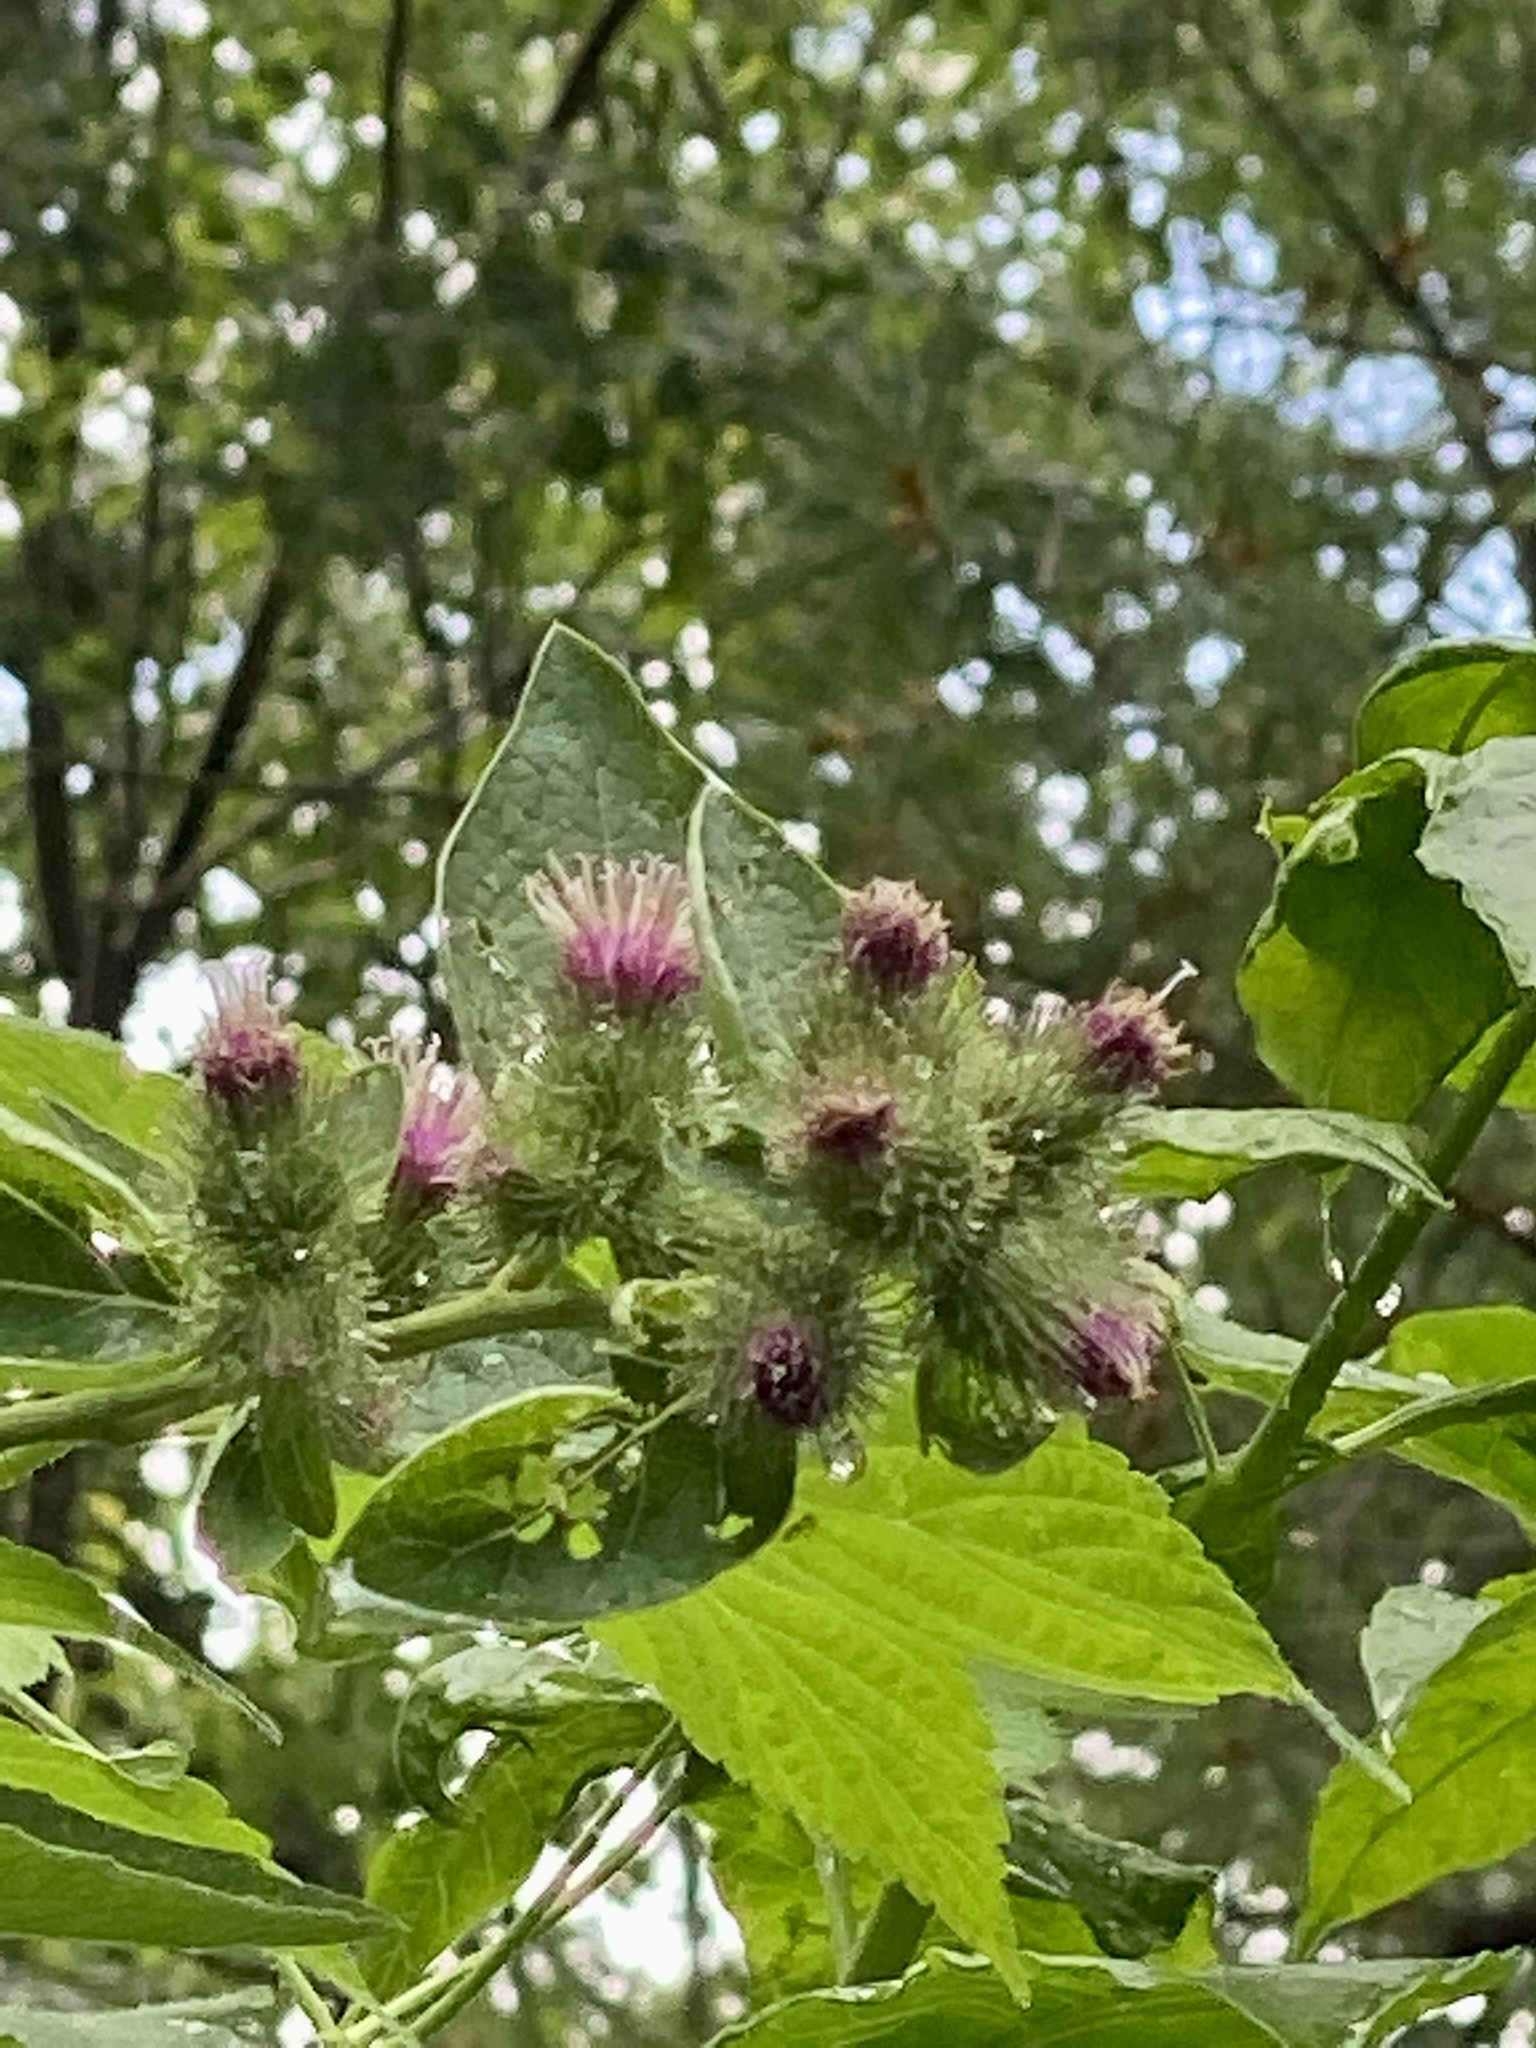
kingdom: Plantae
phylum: Tracheophyta
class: Magnoliopsida
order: Asterales
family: Asteraceae
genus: Arctium
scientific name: Arctium minus
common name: Lesser burdock
